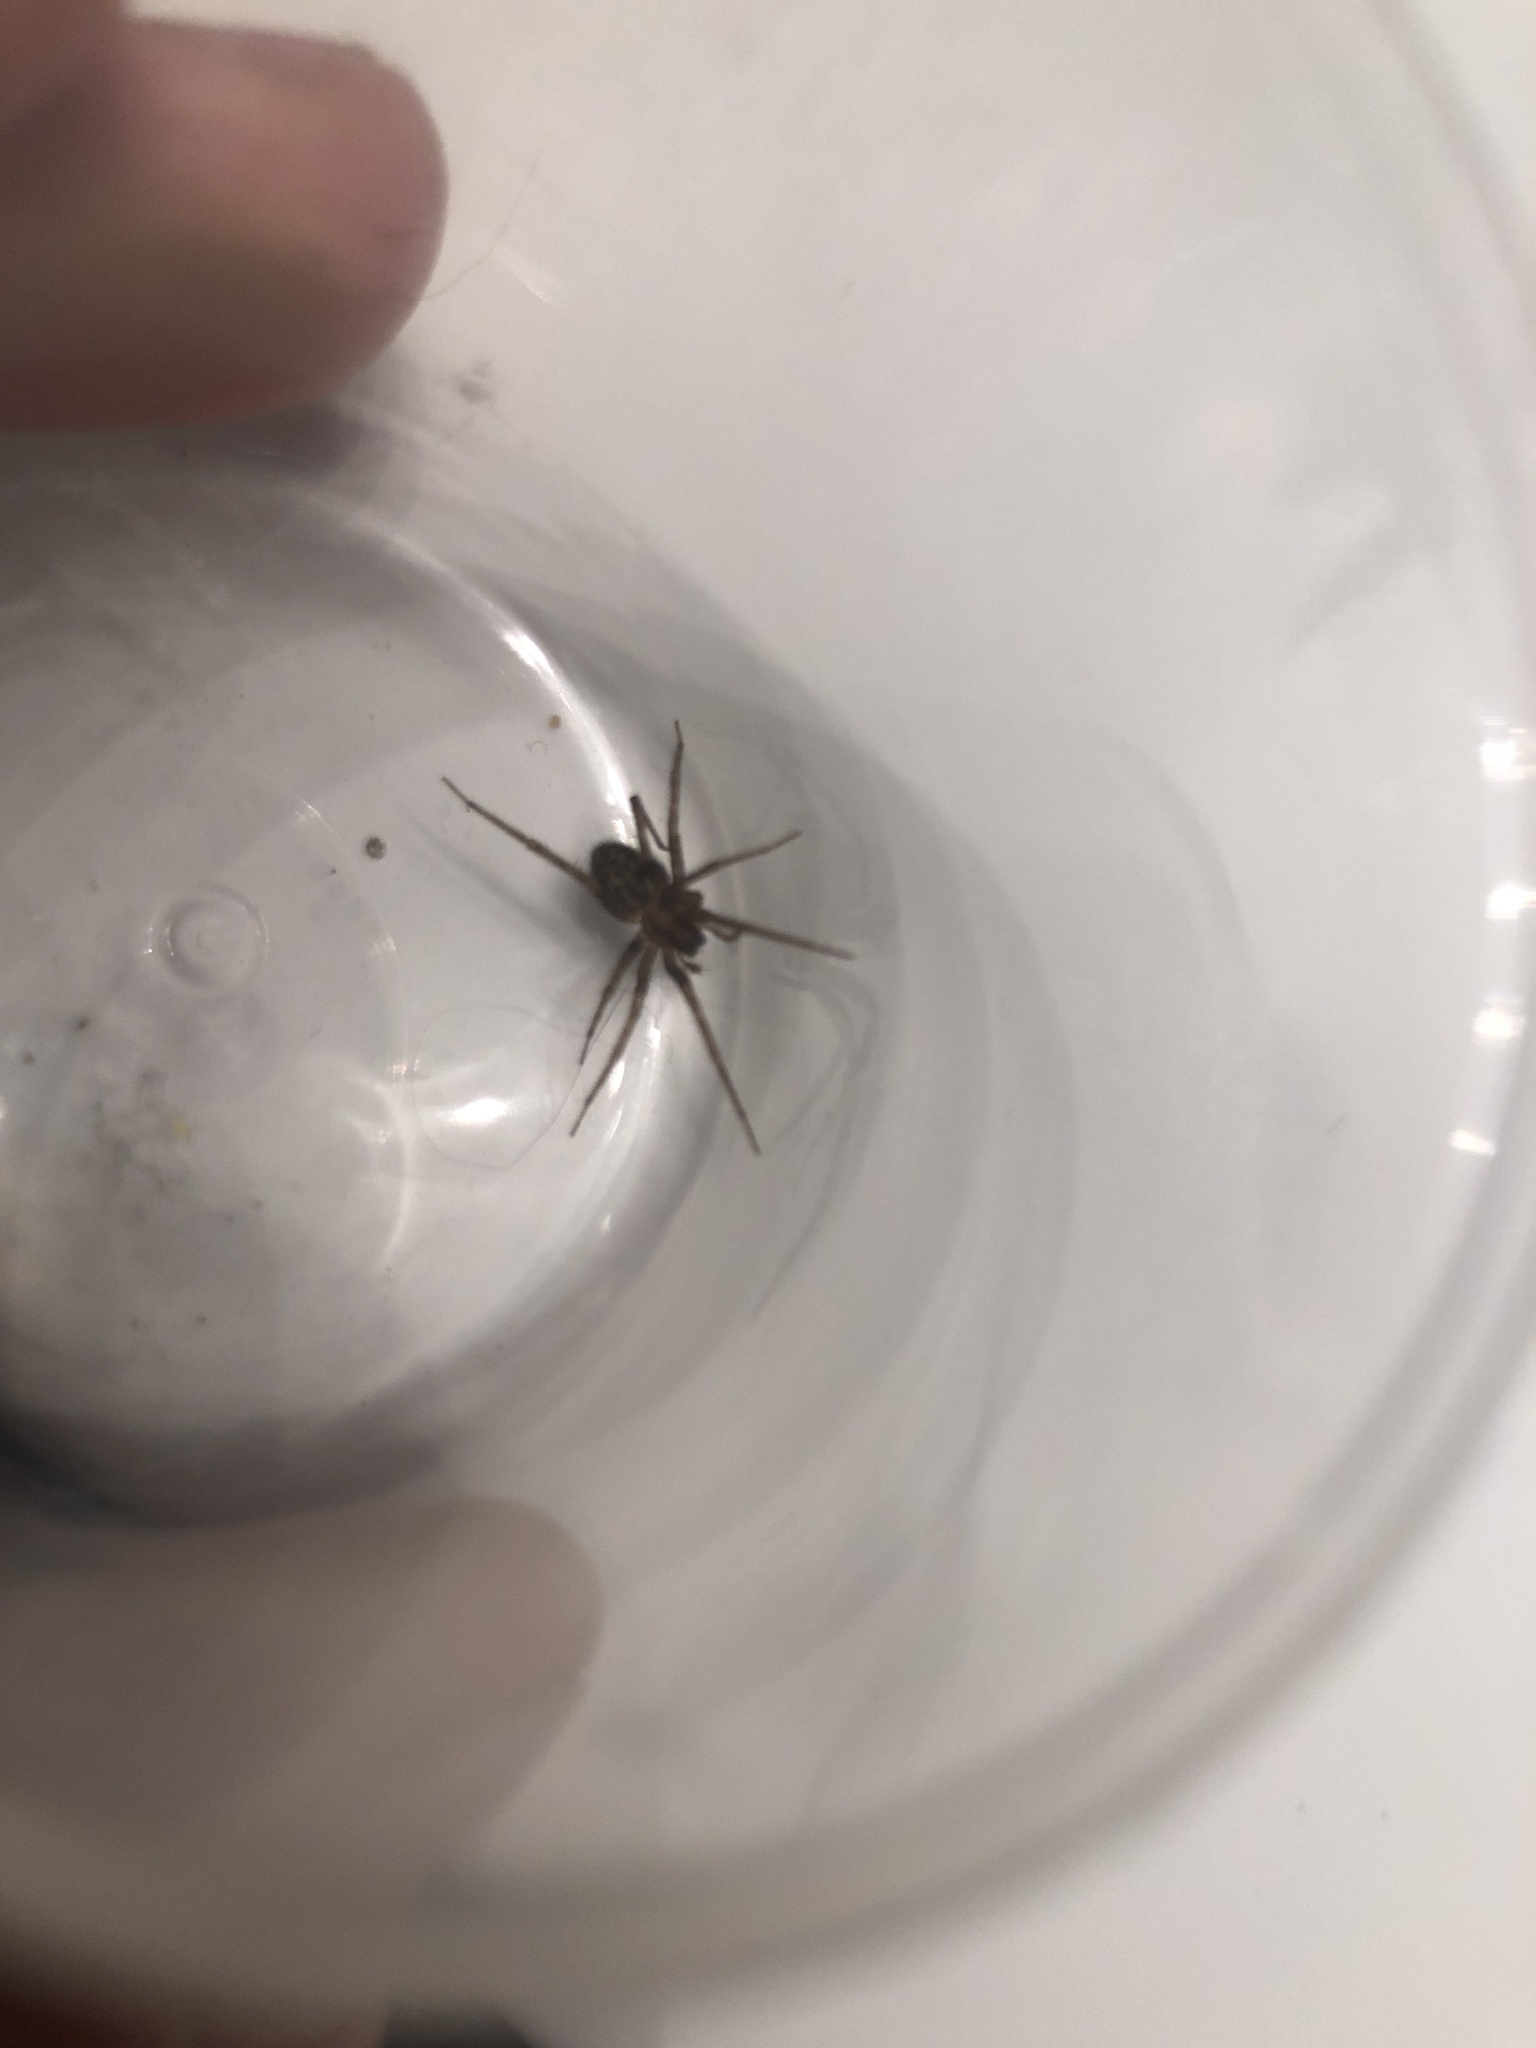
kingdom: Animalia
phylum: Arthropoda
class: Arachnida
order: Araneae
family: Agelenidae
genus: Tegenaria
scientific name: Tegenaria domestica
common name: Barn funnel weaver
